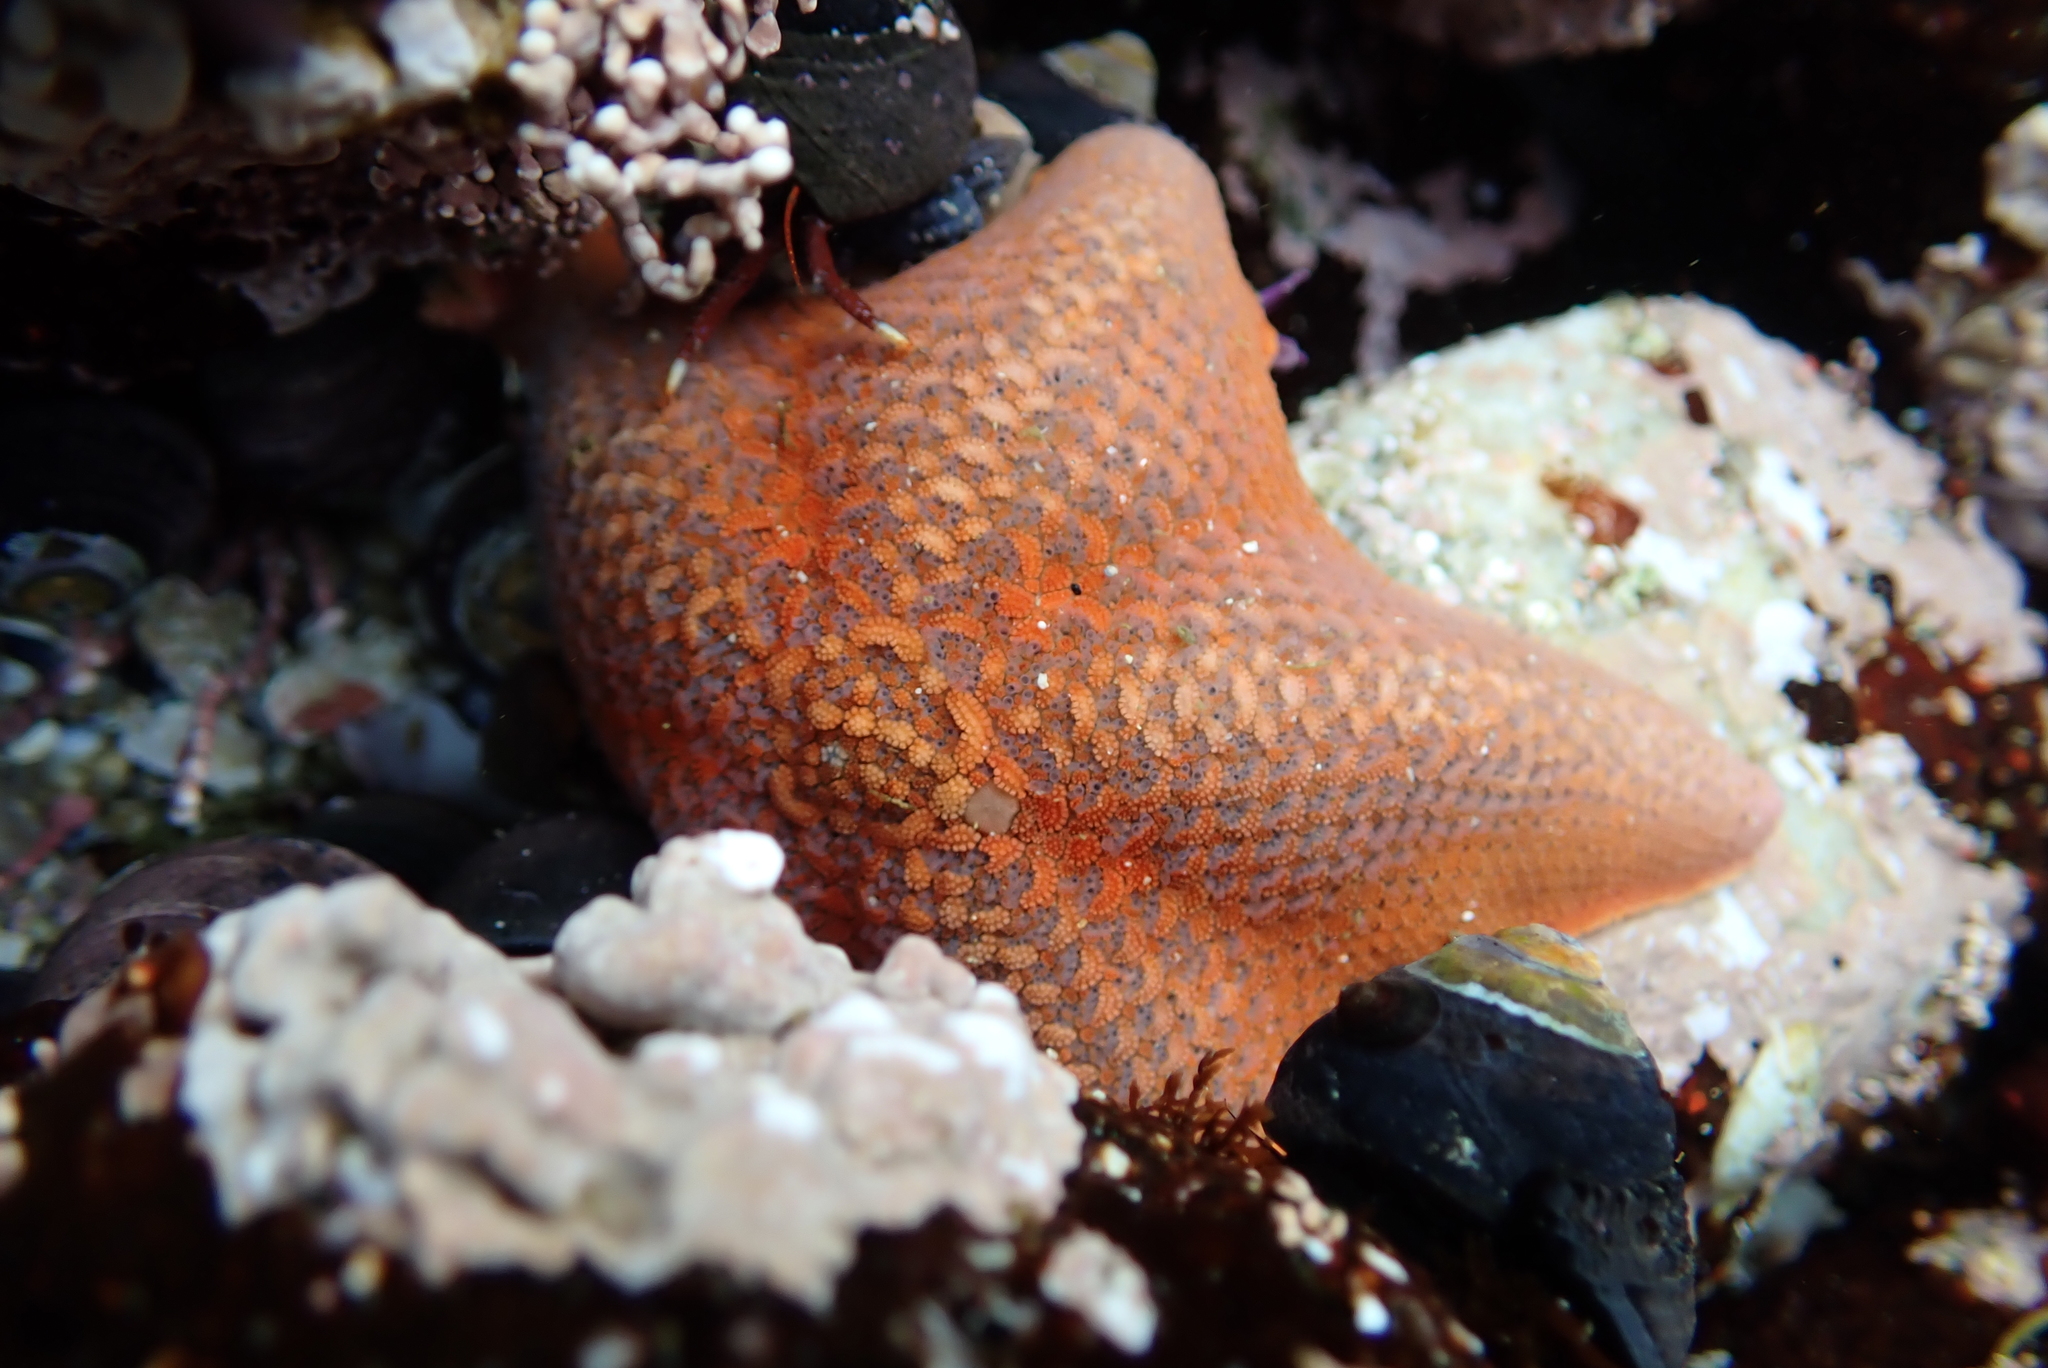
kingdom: Animalia
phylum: Echinodermata
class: Asteroidea
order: Valvatida
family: Asterinidae
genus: Patiria
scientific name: Patiria miniata
